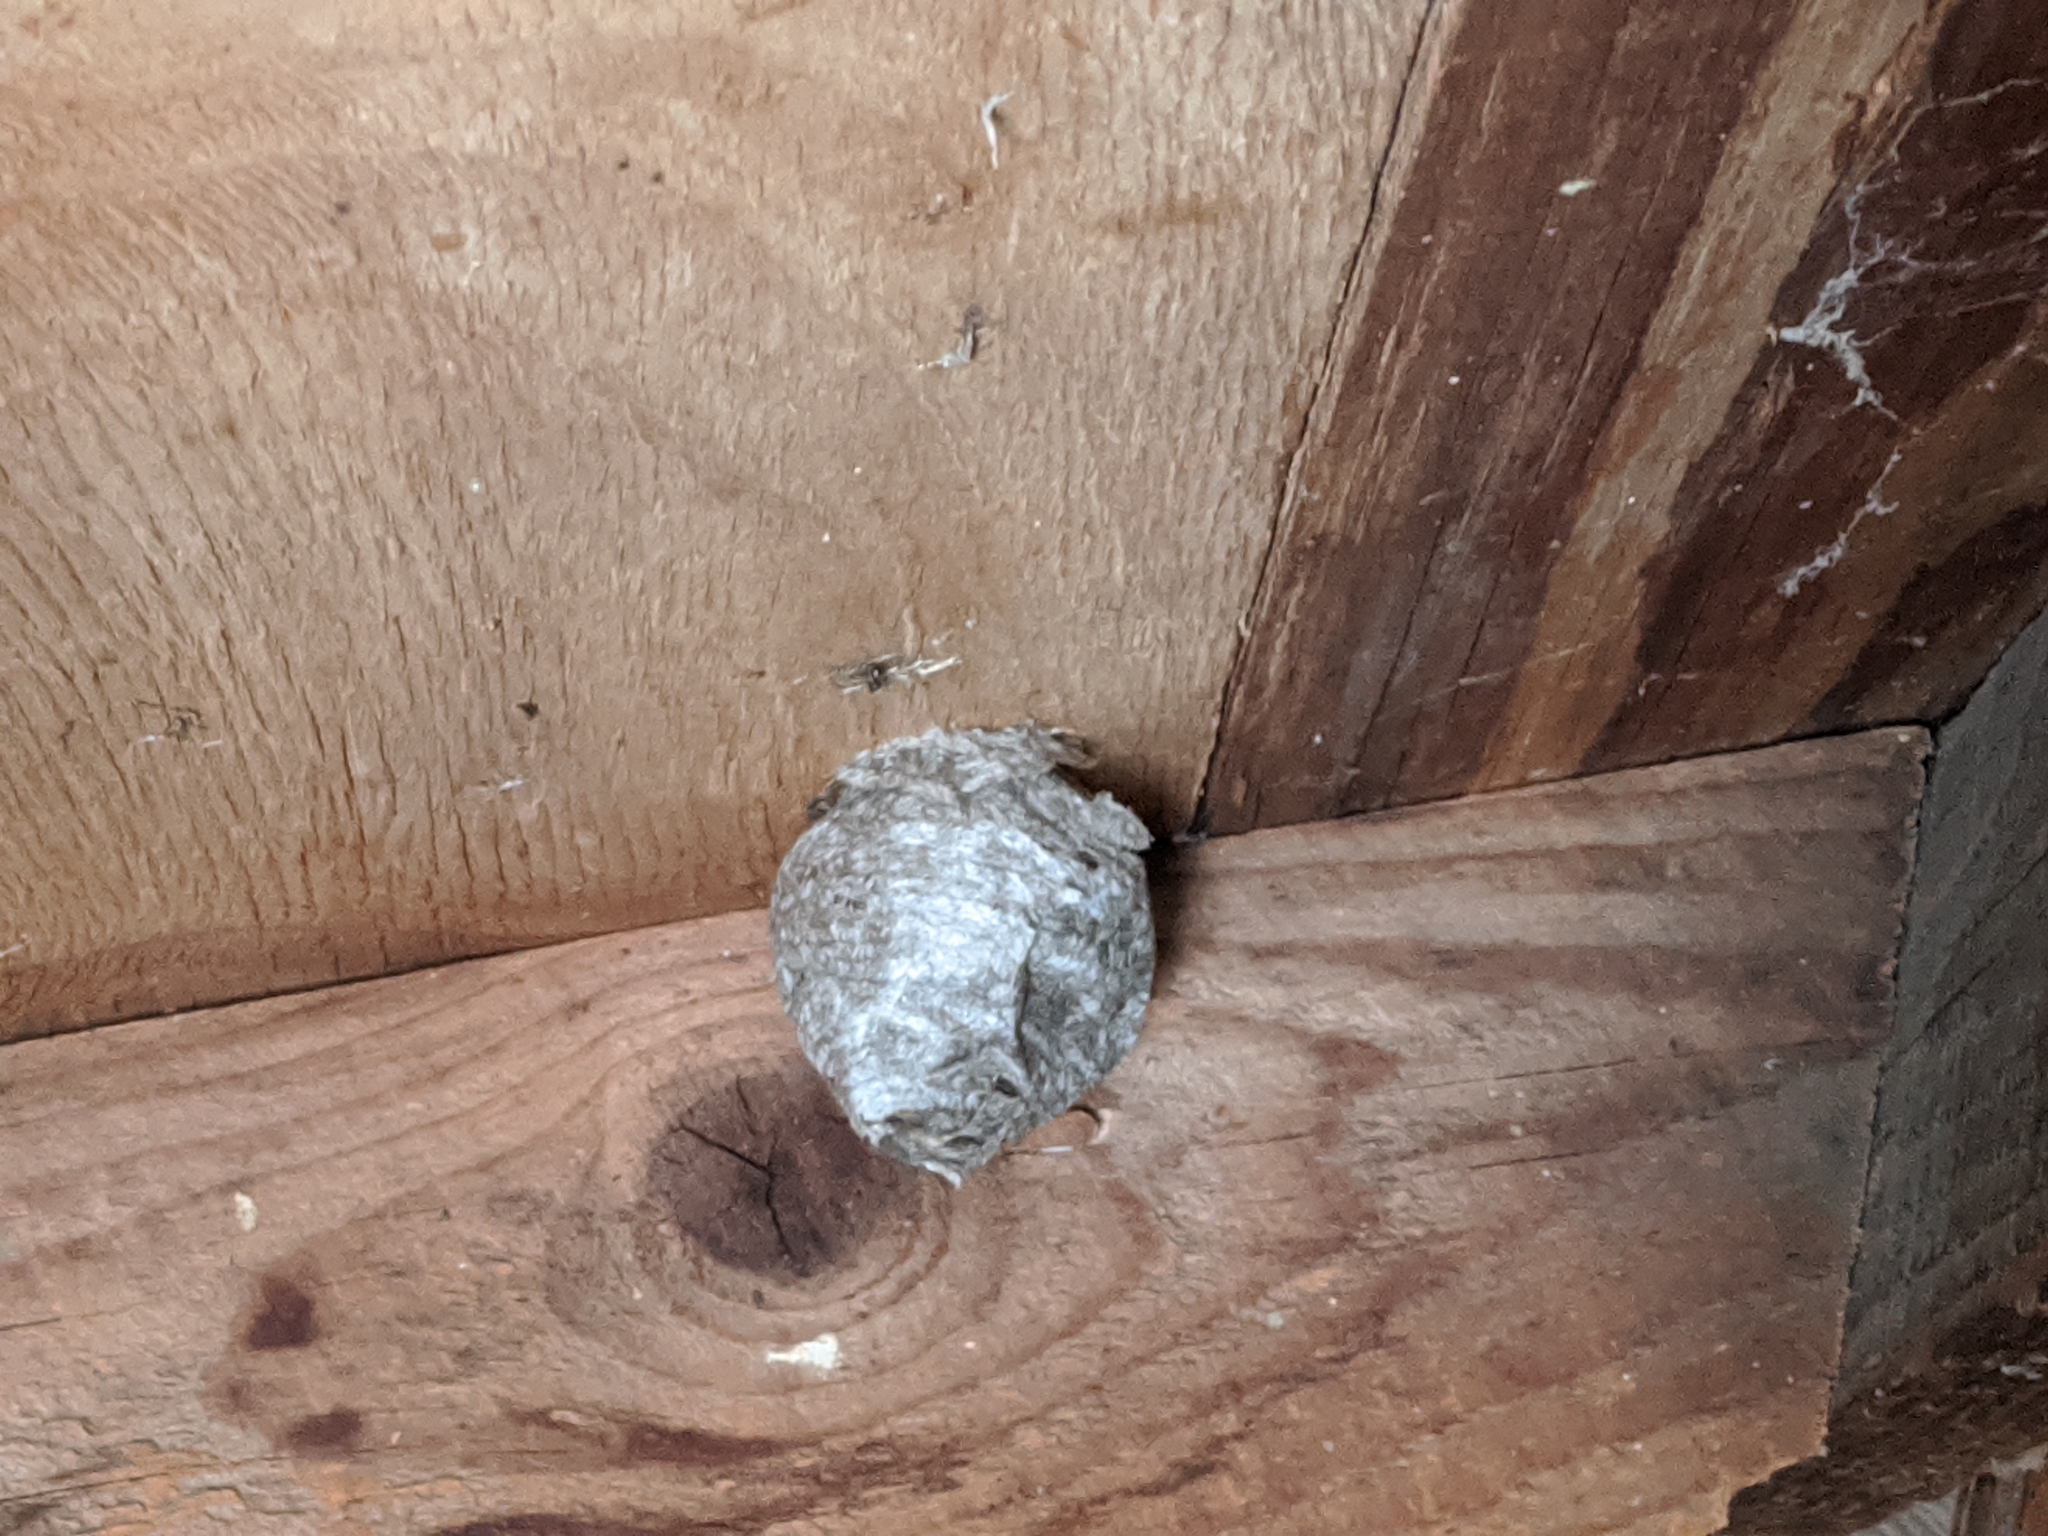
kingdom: Animalia
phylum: Arthropoda
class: Insecta
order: Hymenoptera
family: Vespidae
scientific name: Vespidae
